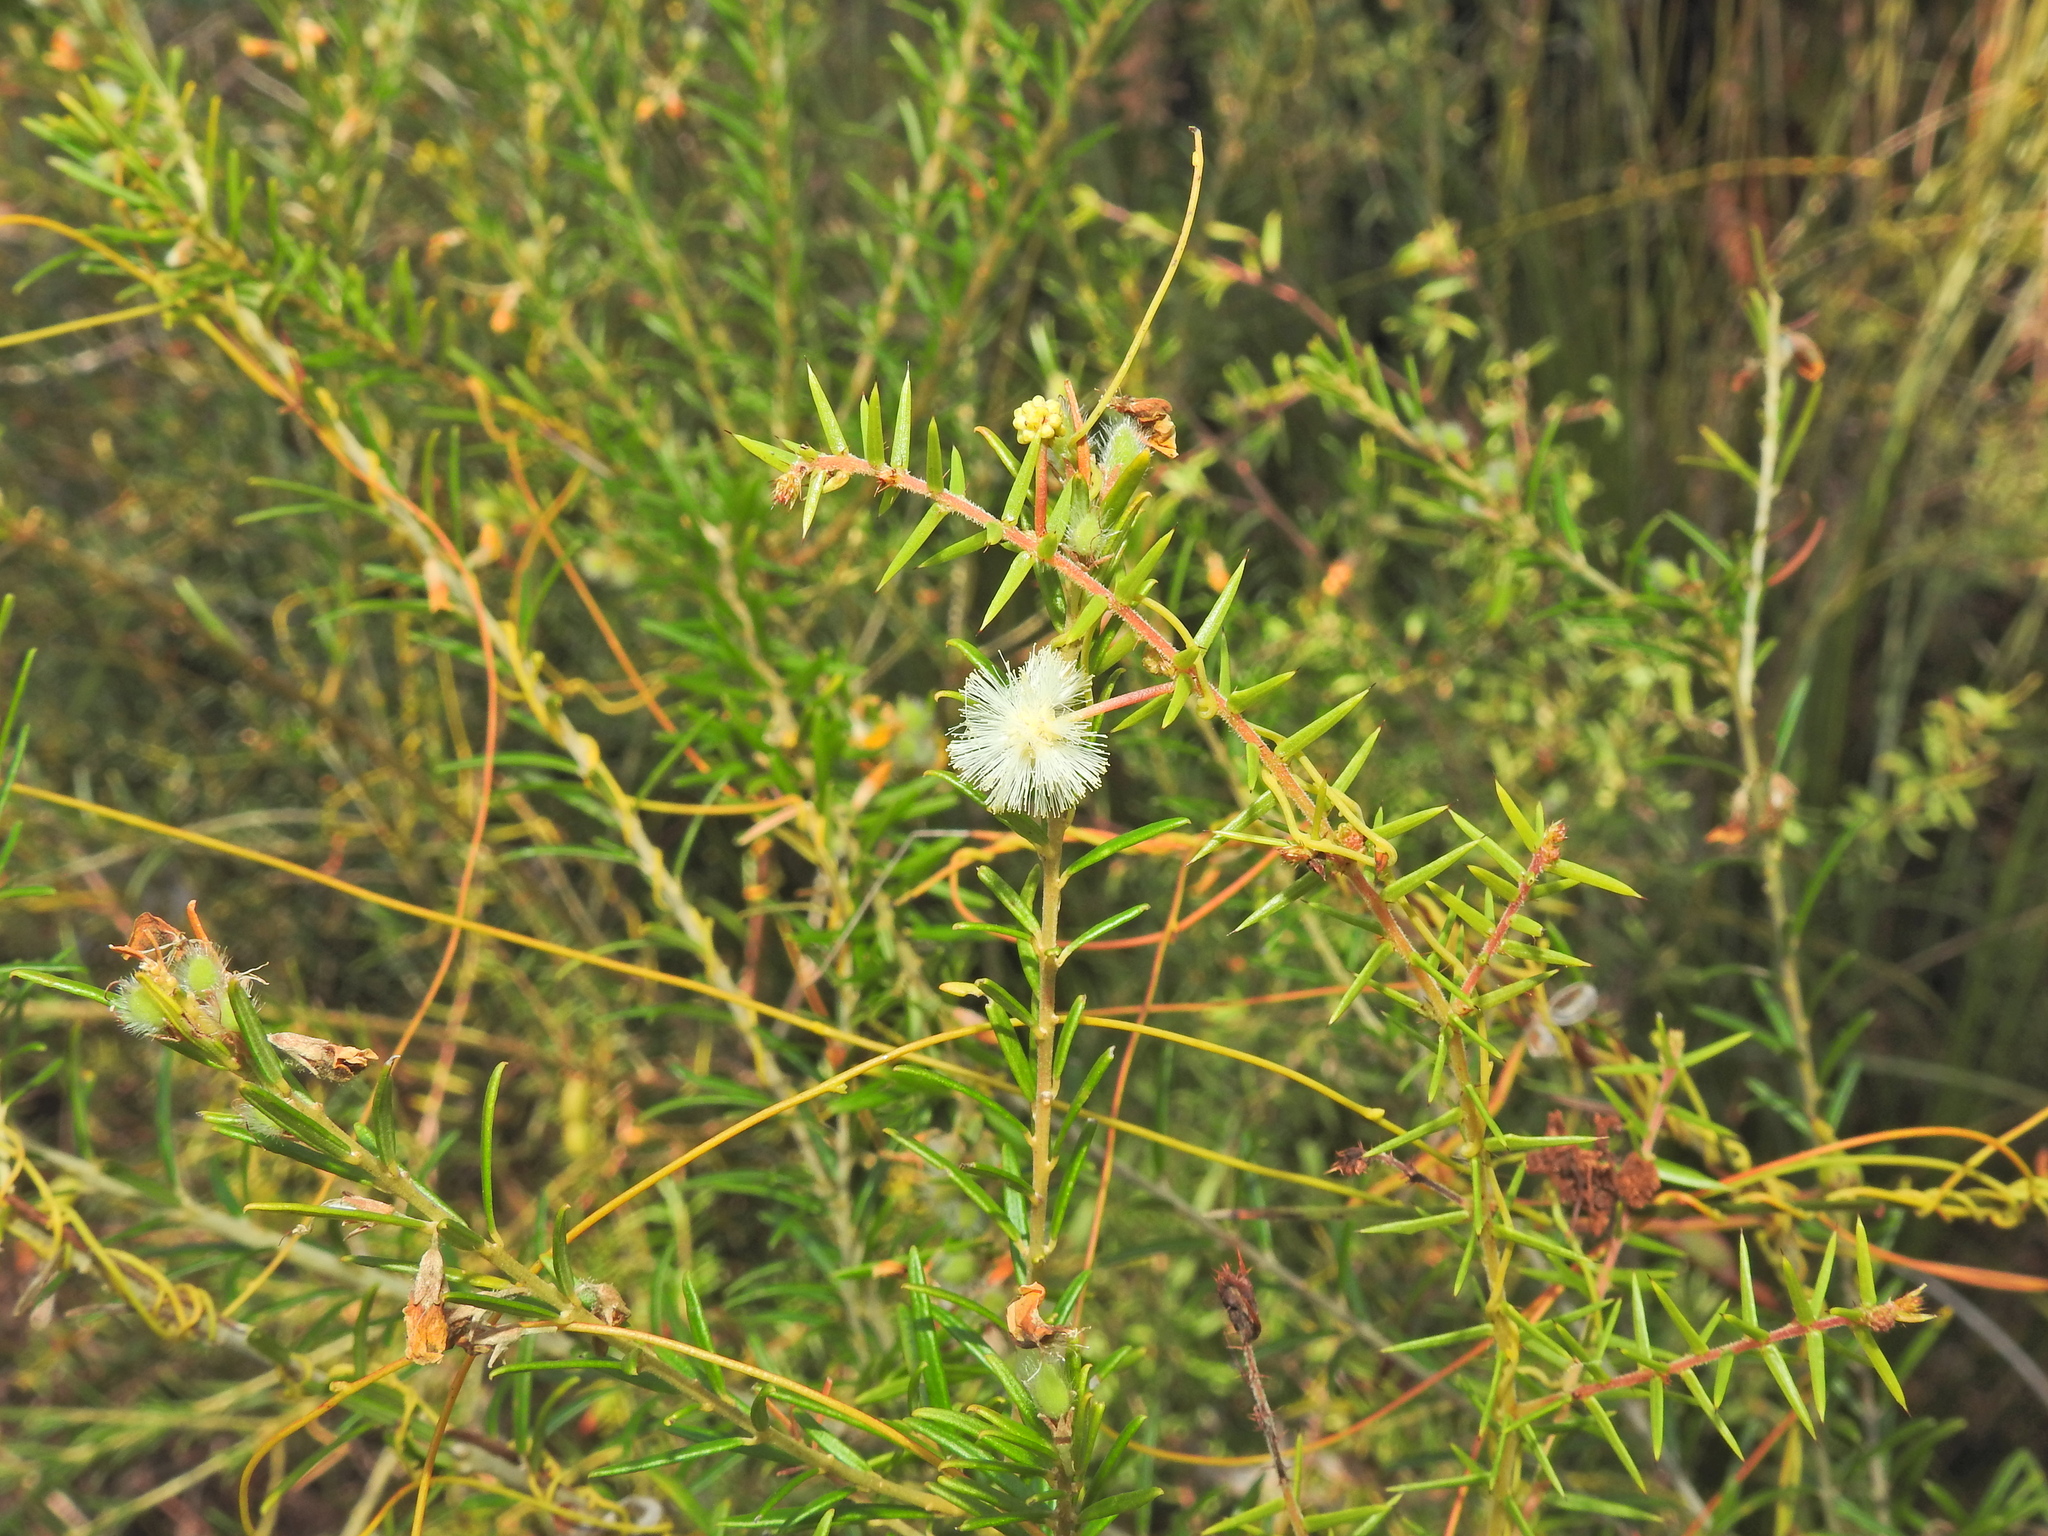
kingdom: Plantae
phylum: Tracheophyta
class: Magnoliopsida
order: Fabales
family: Fabaceae
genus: Acacia
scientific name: Acacia ulicifolia
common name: Juniper wattle
